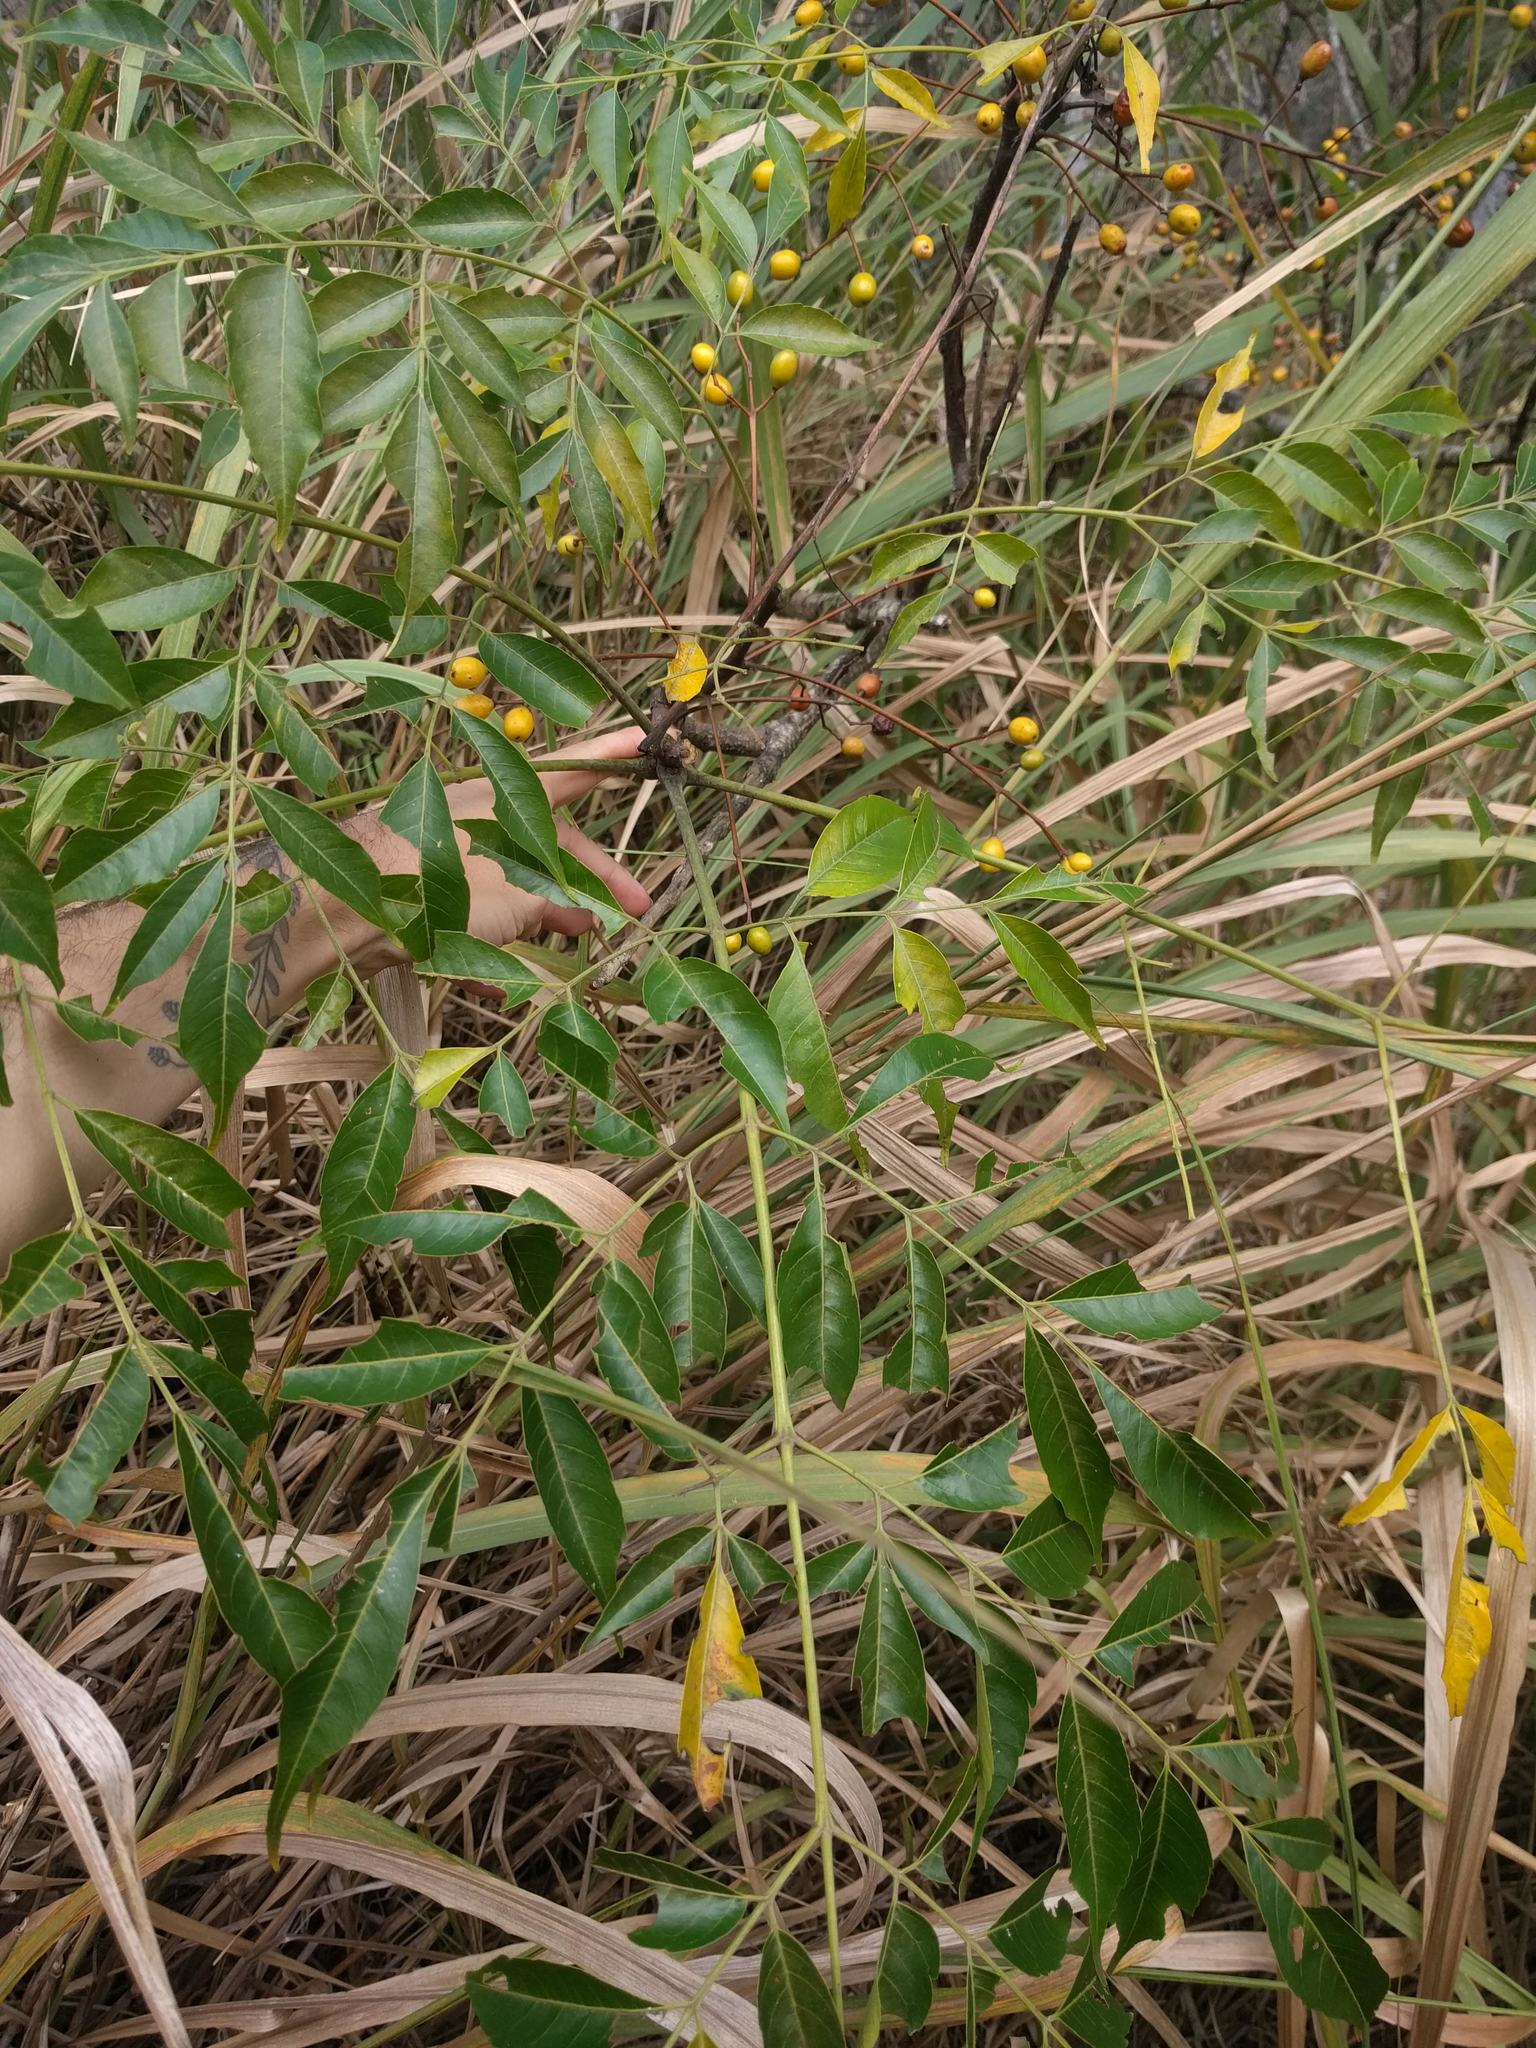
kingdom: Plantae
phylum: Tracheophyta
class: Magnoliopsida
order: Sapindales
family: Meliaceae
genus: Melia
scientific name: Melia azedarach
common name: Chinaberrytree
